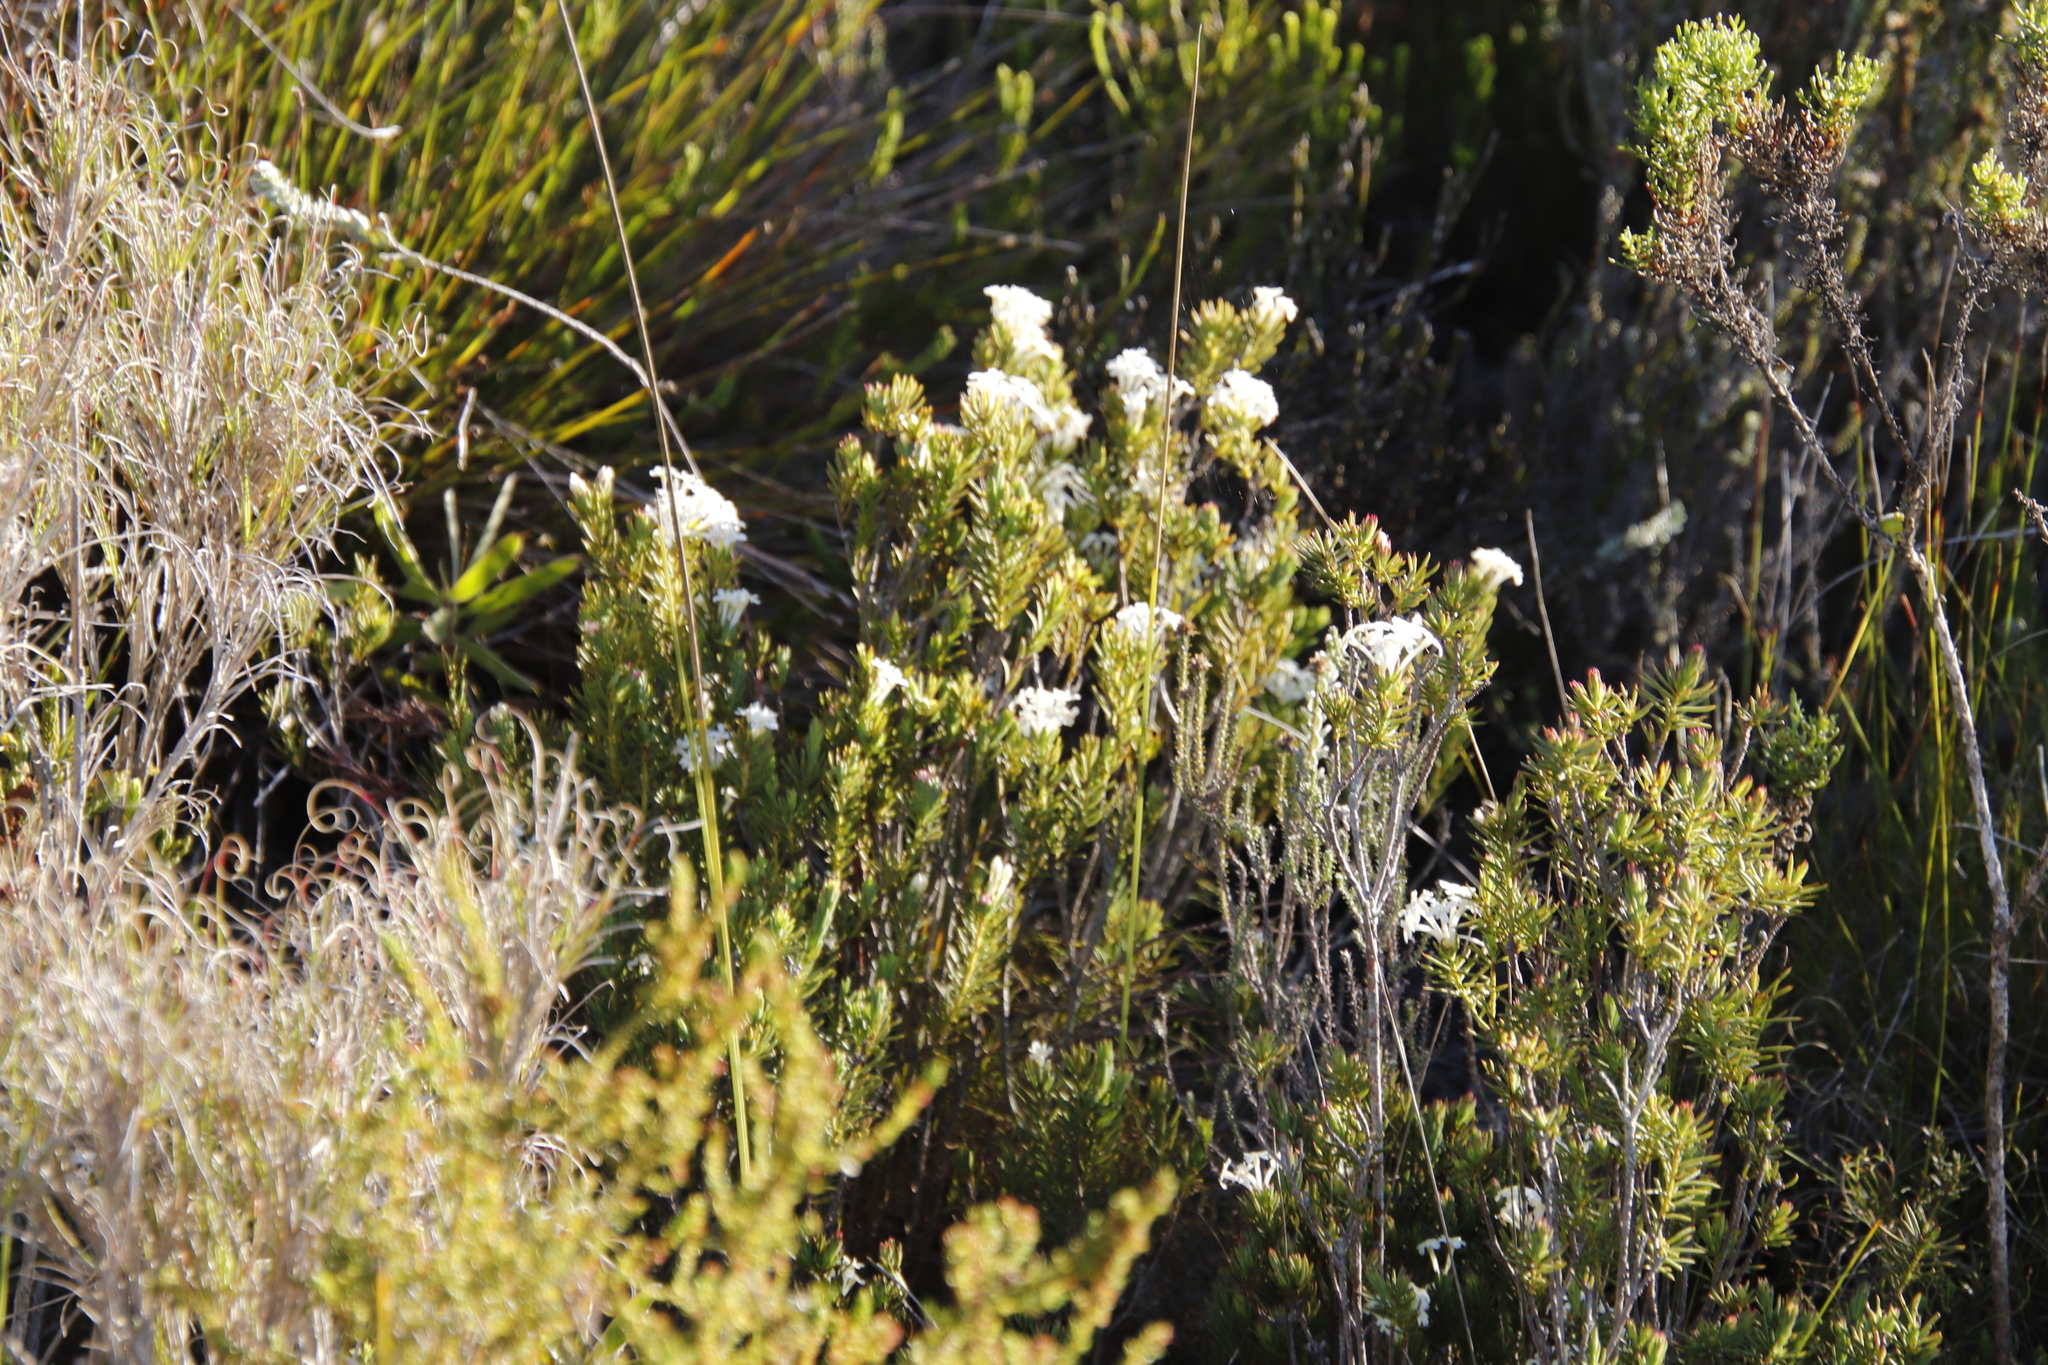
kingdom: Plantae
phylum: Tracheophyta
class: Magnoliopsida
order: Malvales
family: Thymelaeaceae
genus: Gnidia
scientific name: Gnidia pinifolia
